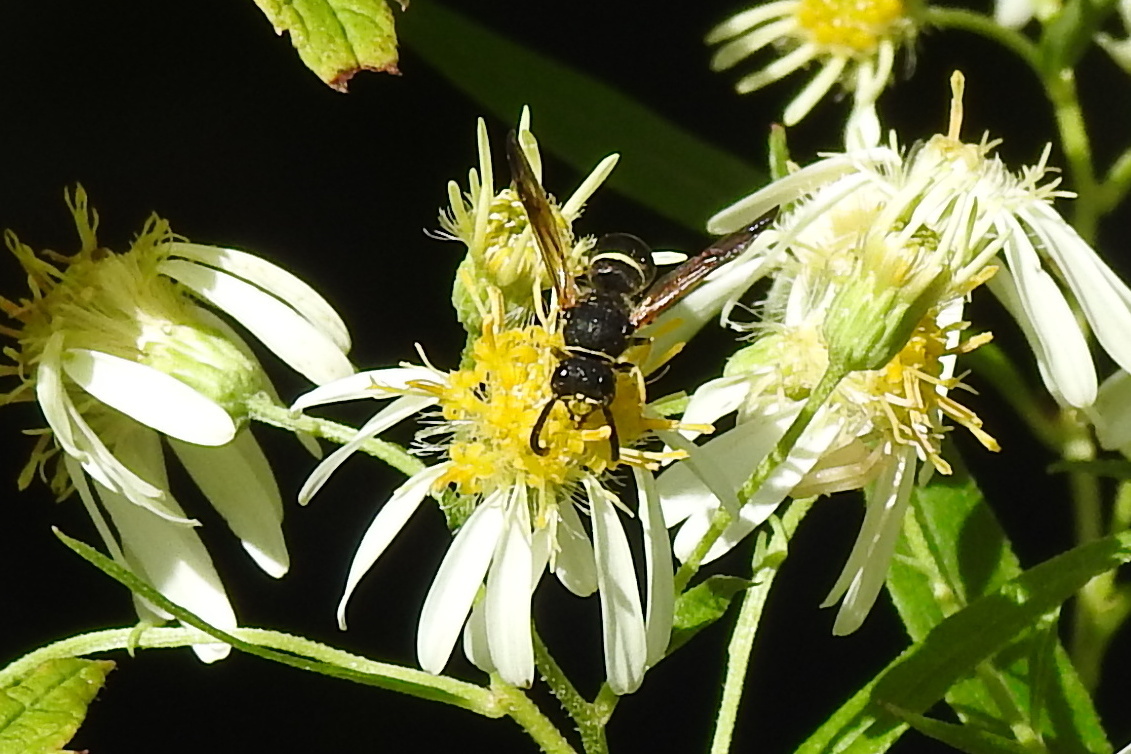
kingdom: Animalia
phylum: Arthropoda
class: Insecta
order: Hymenoptera
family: Vespidae
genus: Ancistrocerus
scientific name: Ancistrocerus
